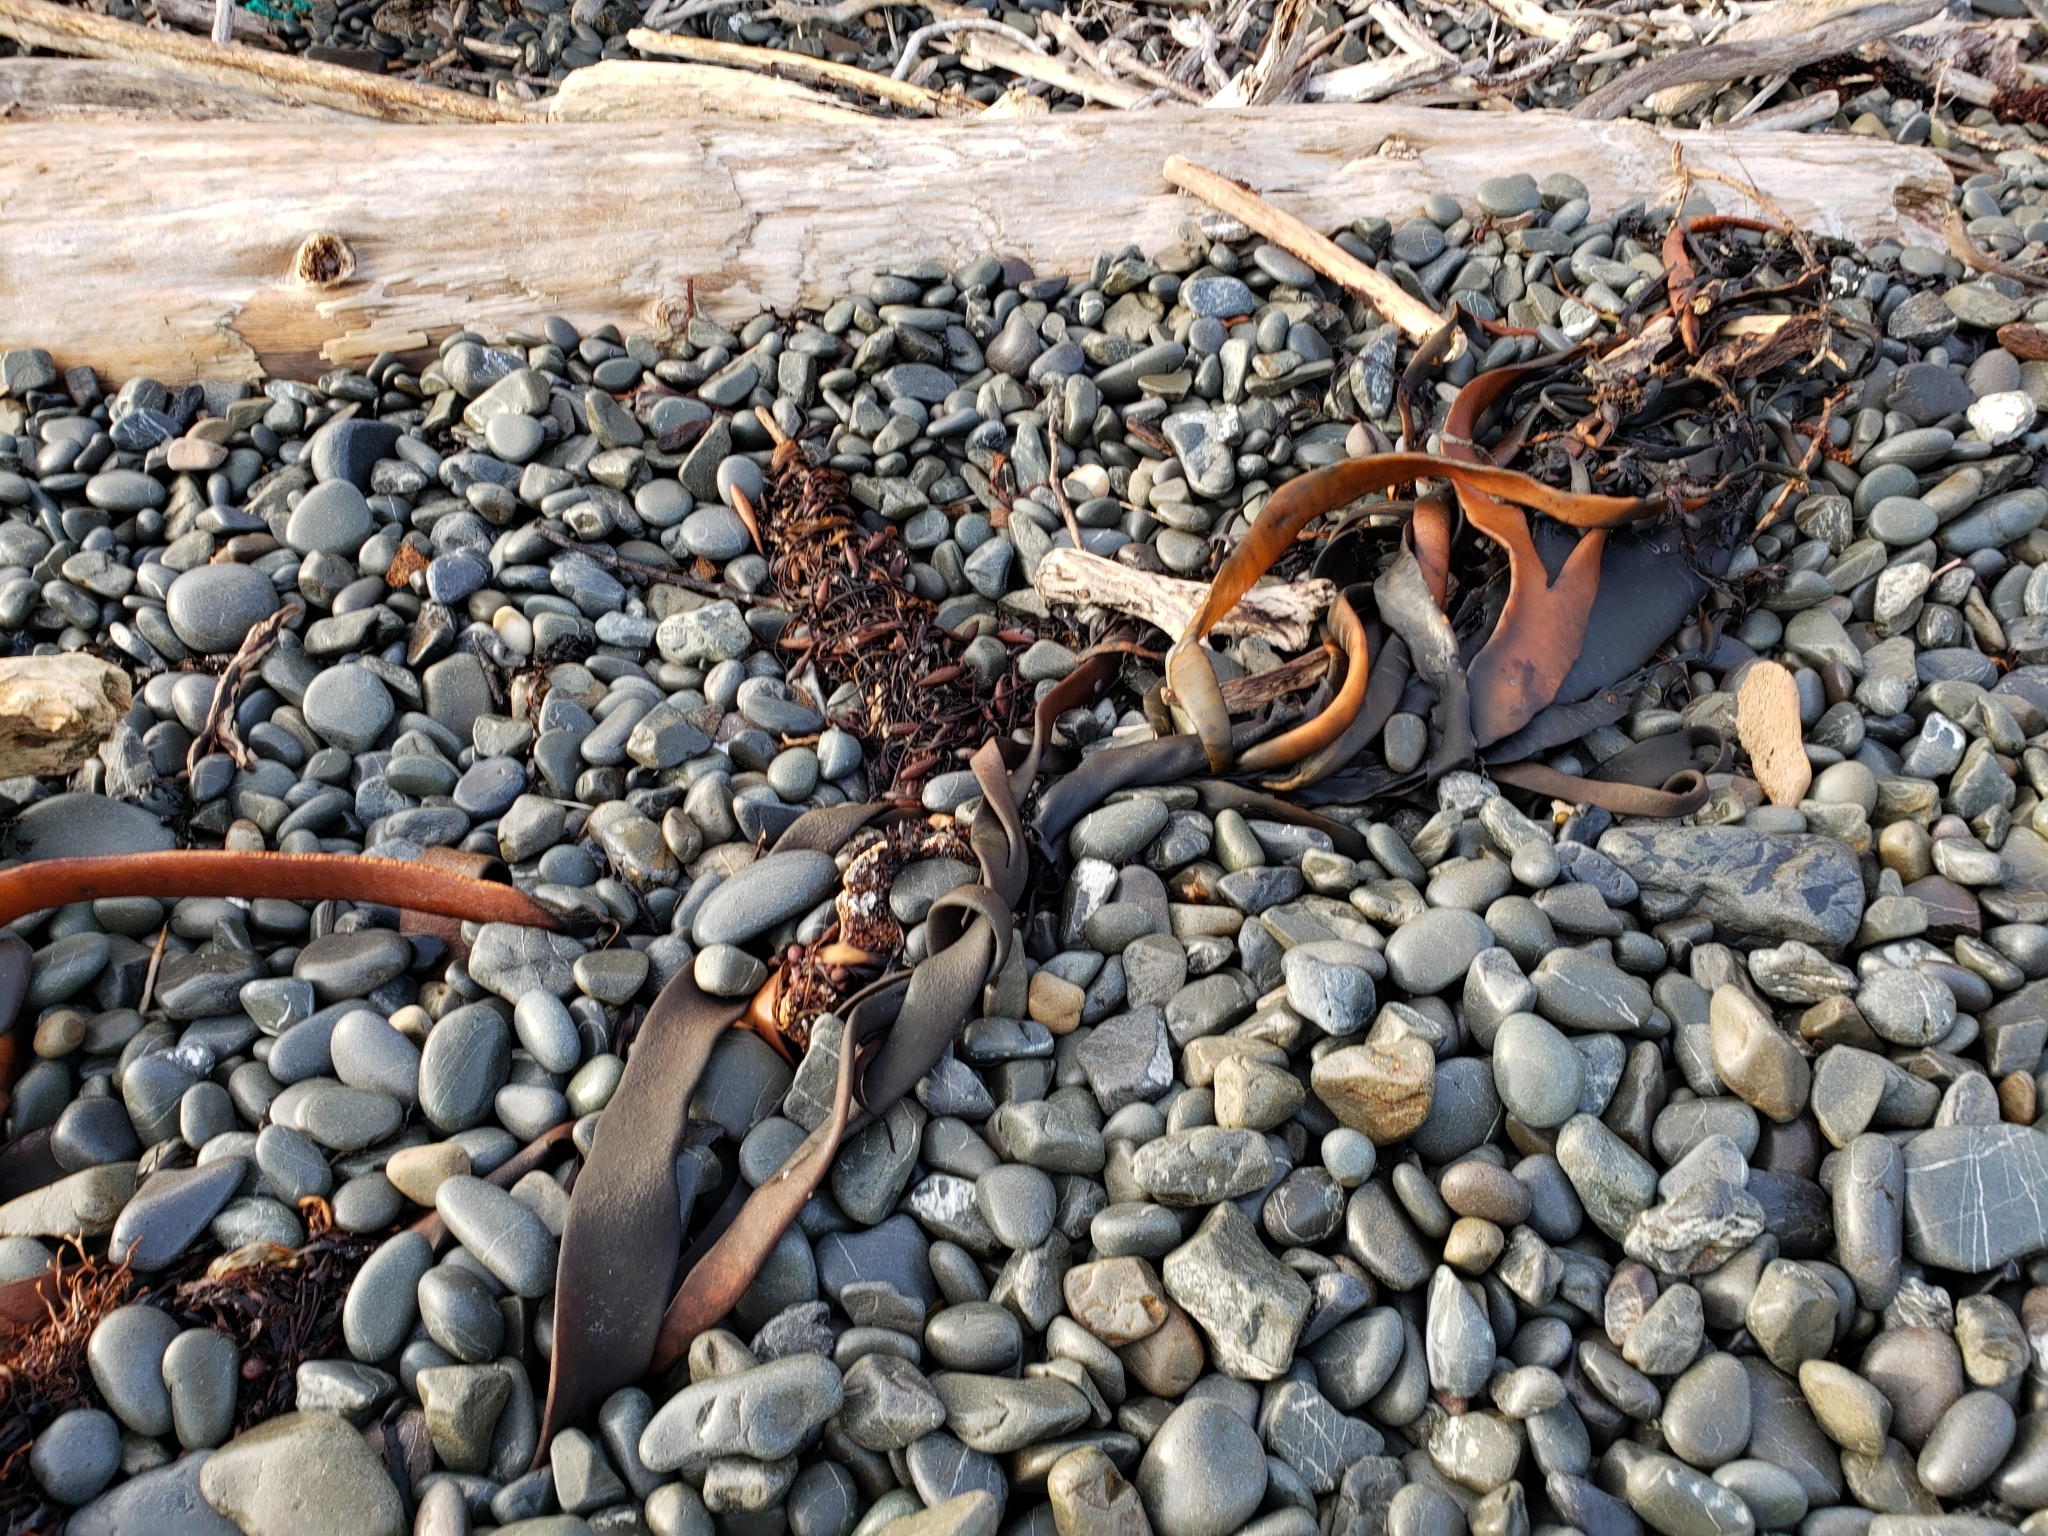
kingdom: Chromista
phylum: Ochrophyta
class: Phaeophyceae
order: Fucales
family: Durvillaeaceae
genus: Durvillaea
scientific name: Durvillaea antarctica
